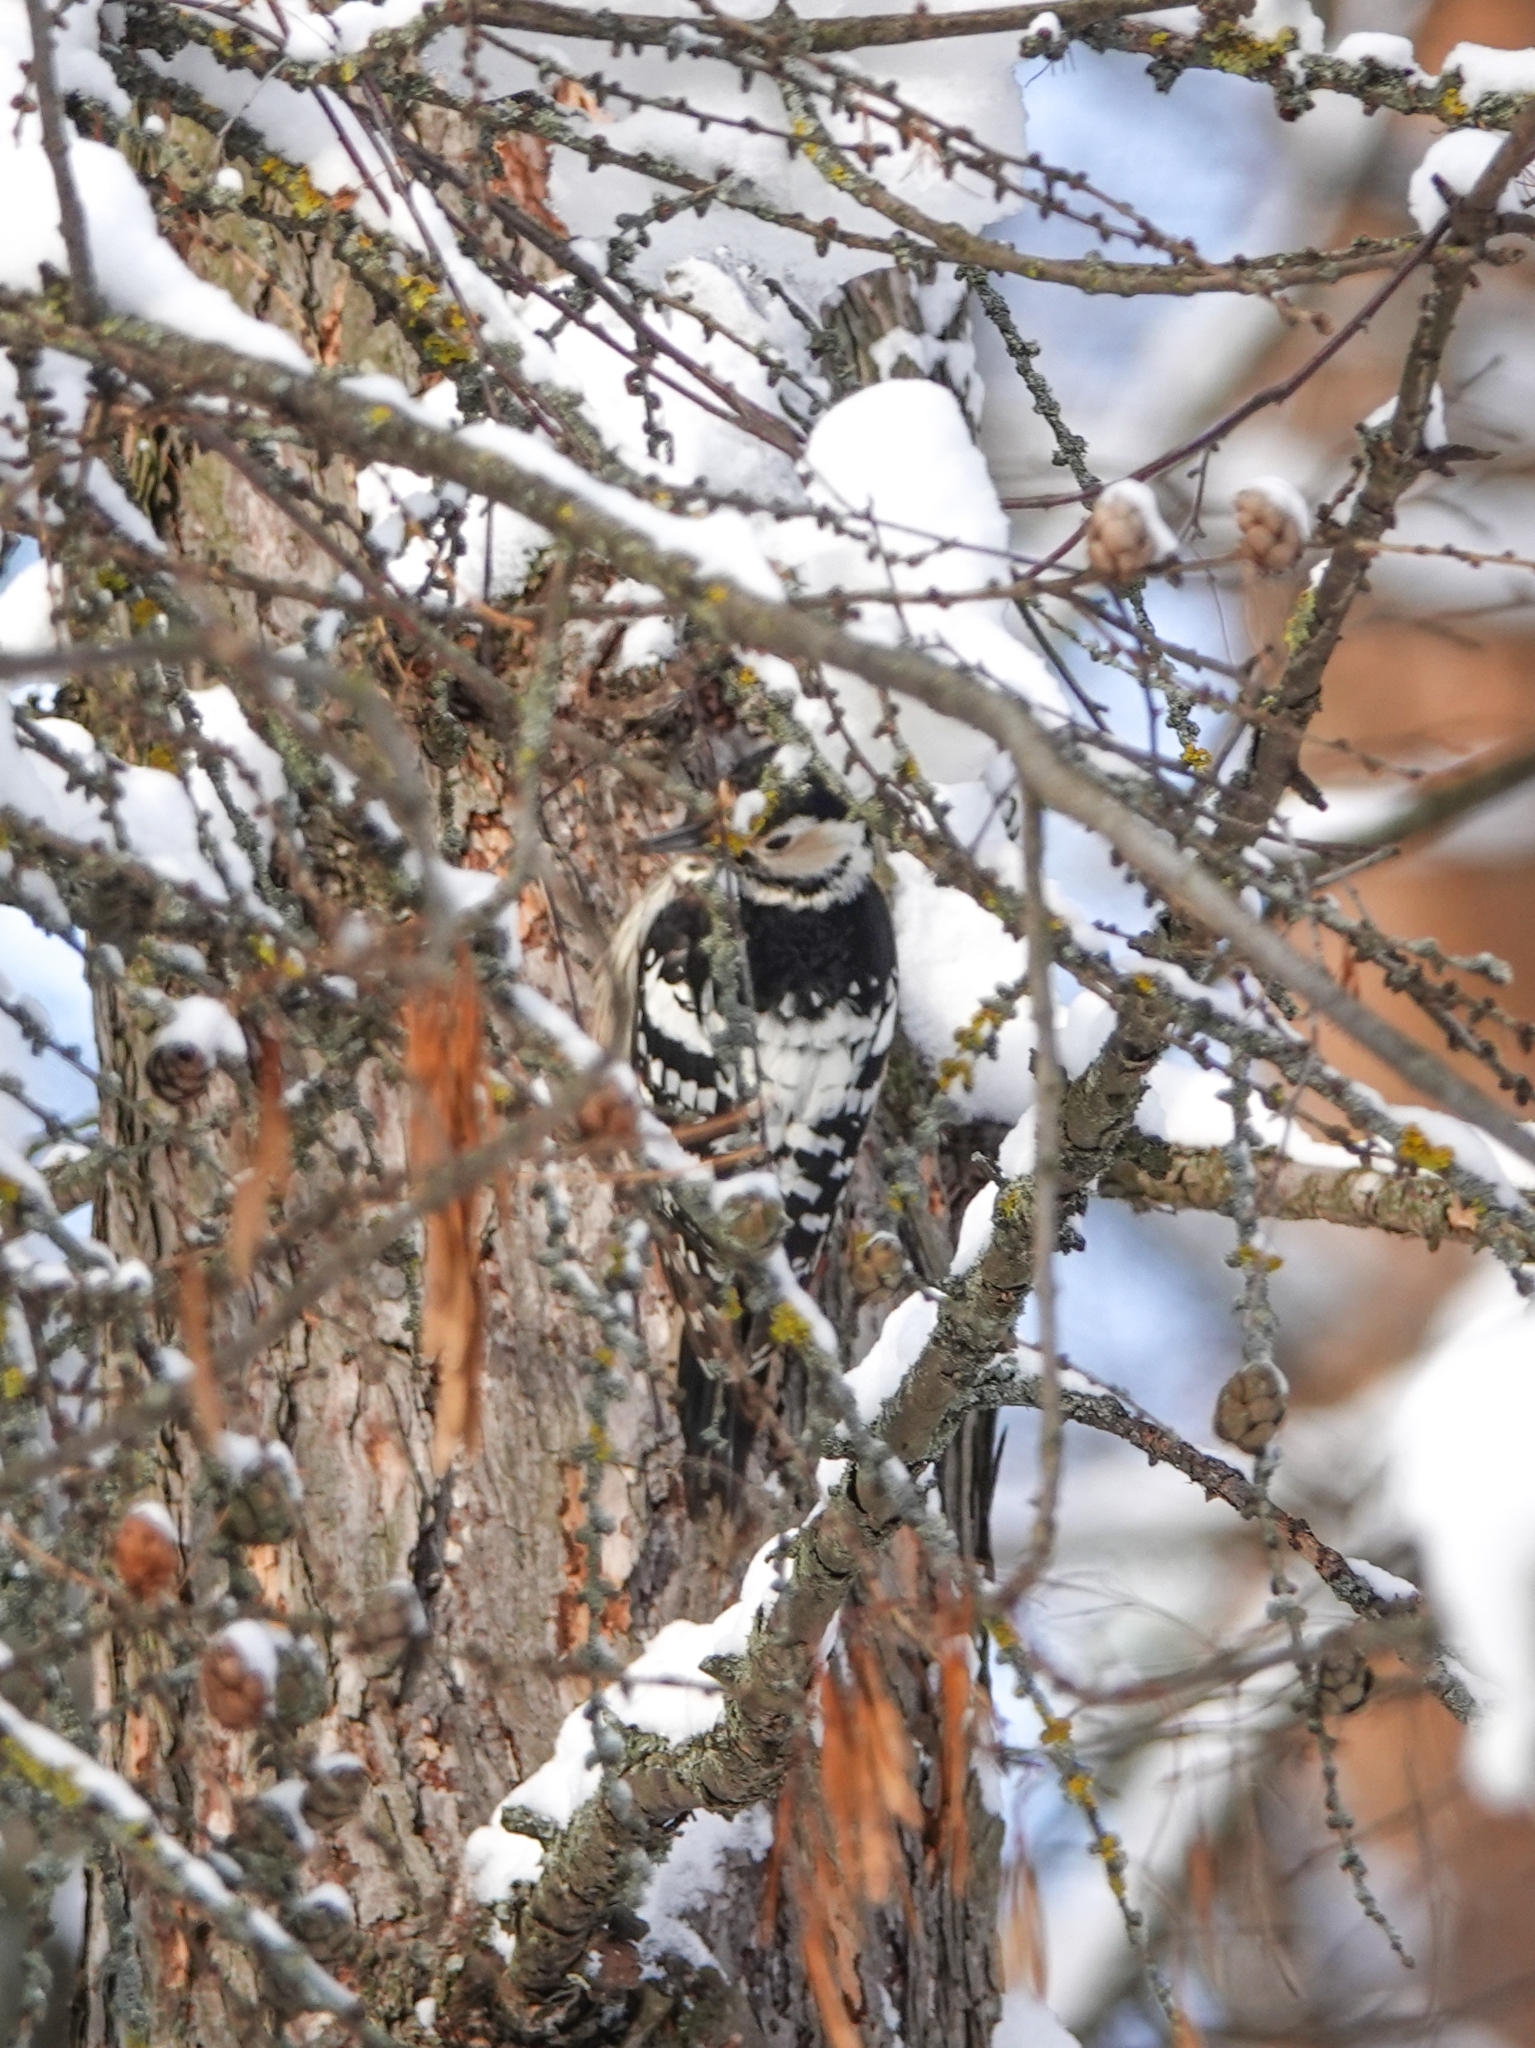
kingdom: Animalia
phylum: Chordata
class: Aves
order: Piciformes
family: Picidae
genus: Dendrocopos
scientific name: Dendrocopos leucotos
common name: White-backed woodpecker
